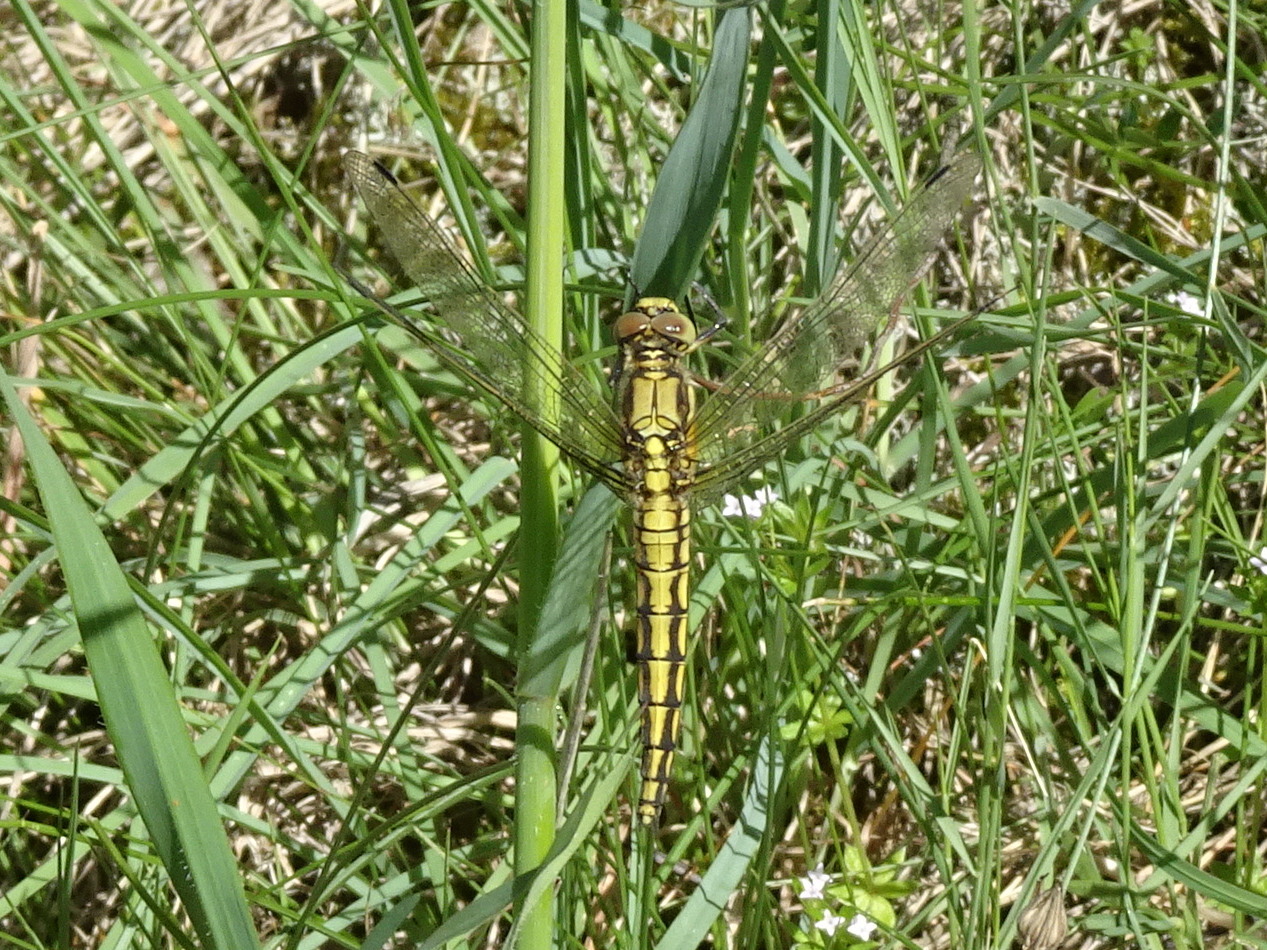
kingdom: Animalia
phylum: Arthropoda
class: Insecta
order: Odonata
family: Libellulidae
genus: Orthetrum
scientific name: Orthetrum cancellatum
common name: Black-tailed skimmer
